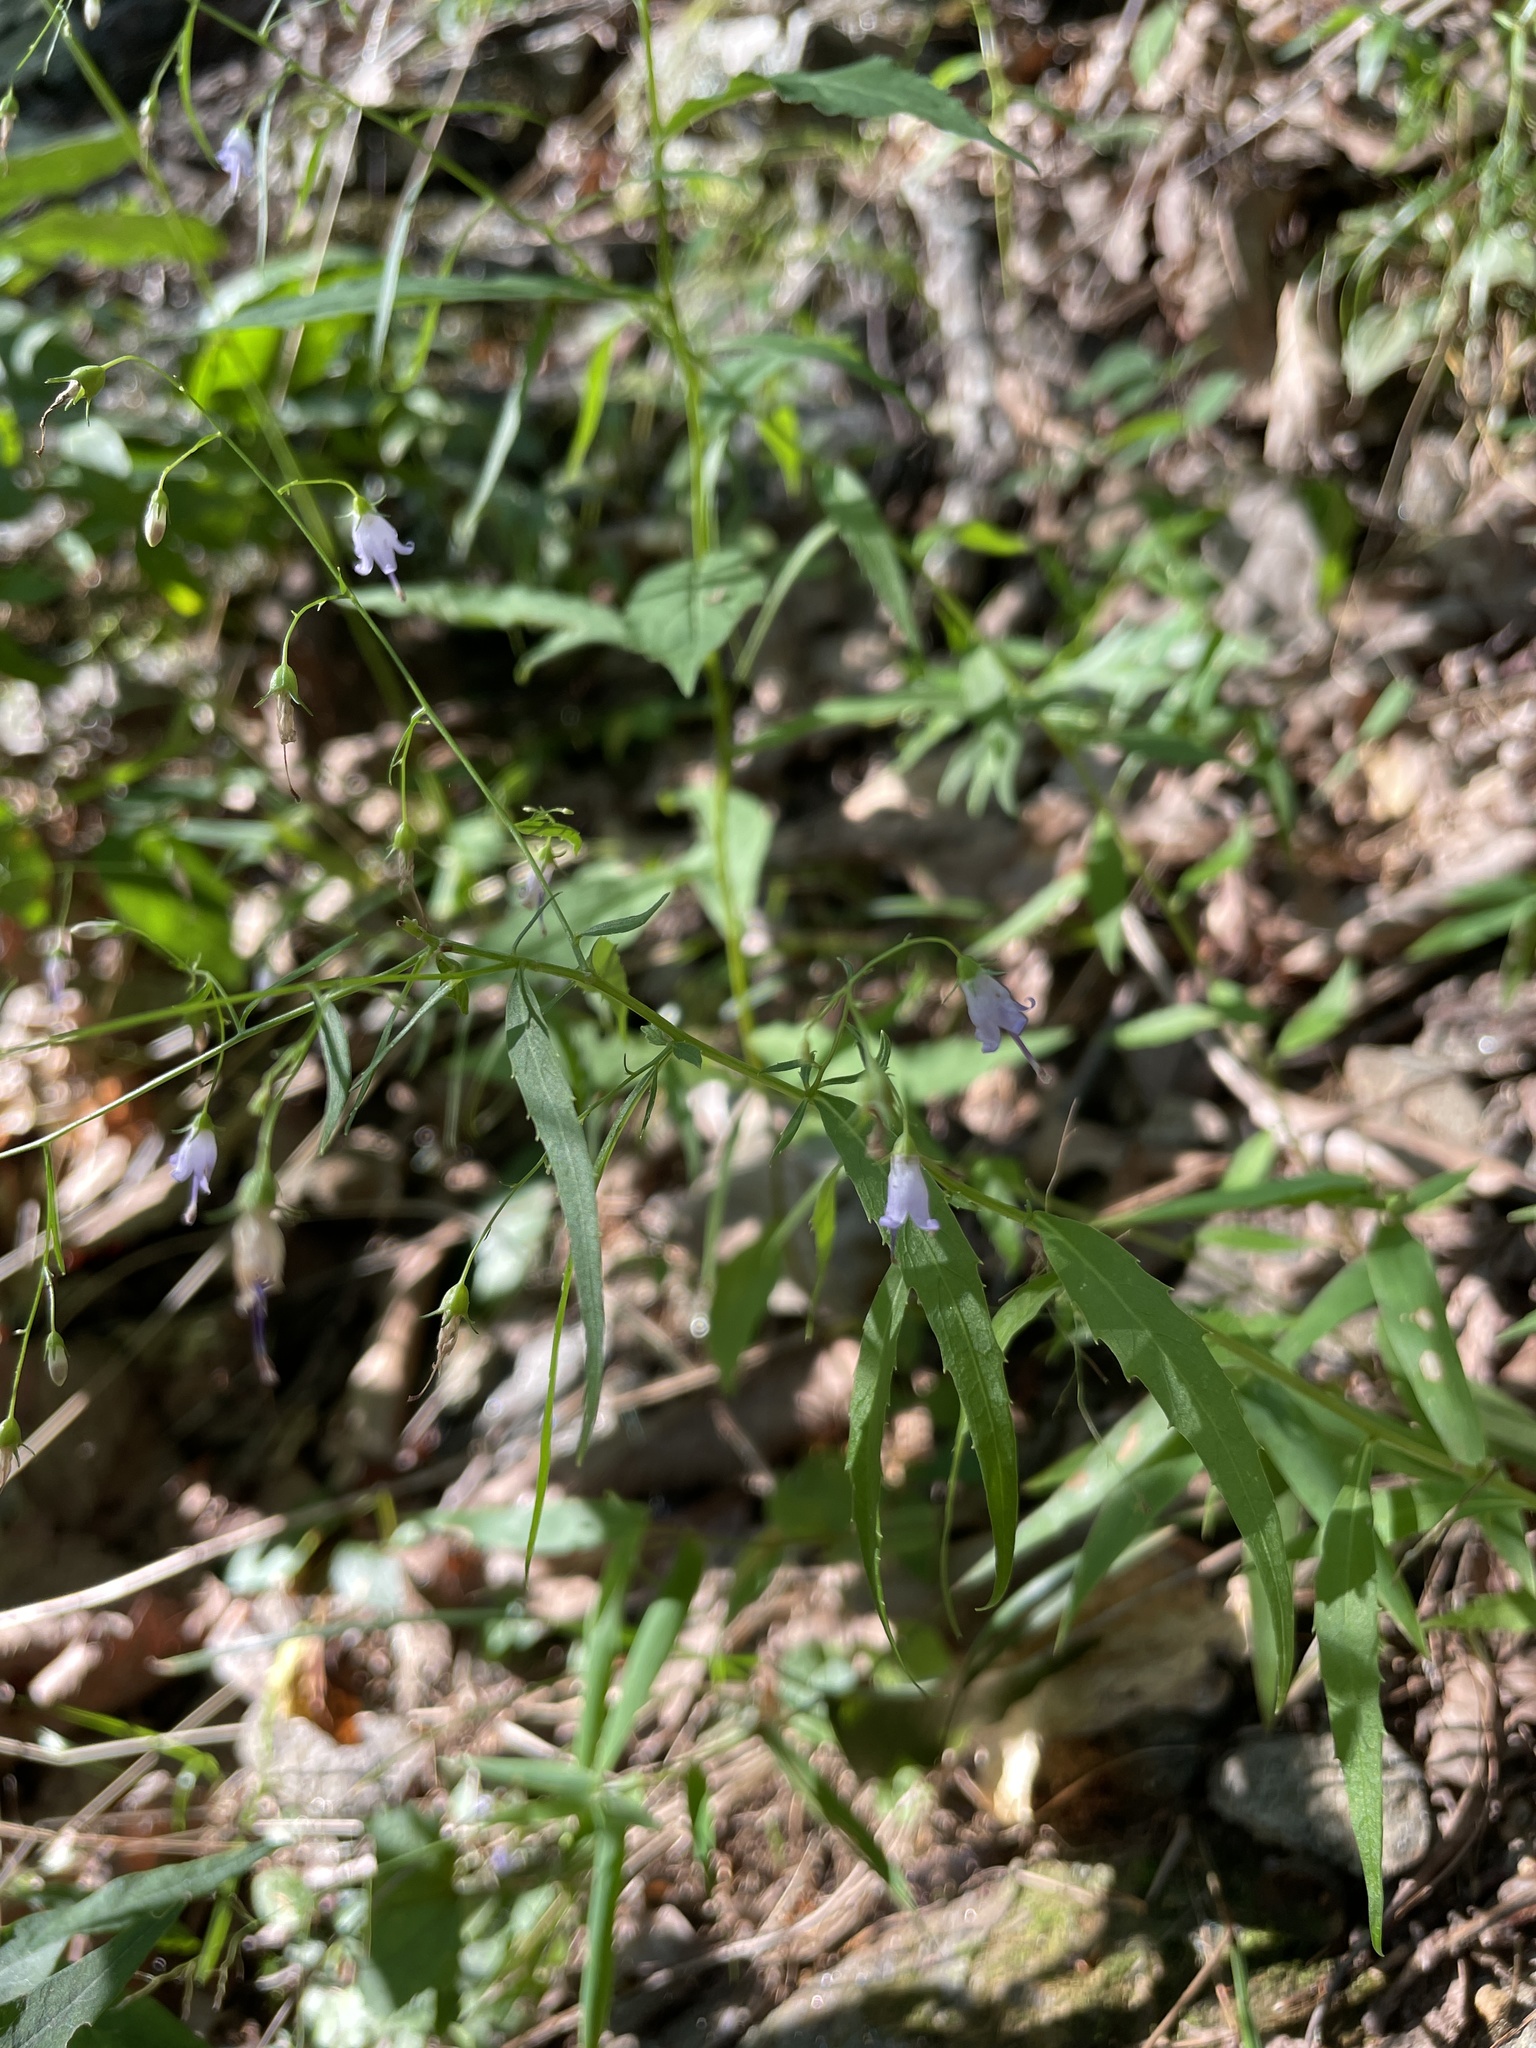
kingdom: Plantae
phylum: Tracheophyta
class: Magnoliopsida
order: Asterales
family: Campanulaceae
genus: Campanula
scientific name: Campanula divaricata
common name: Appalachian bellflower
